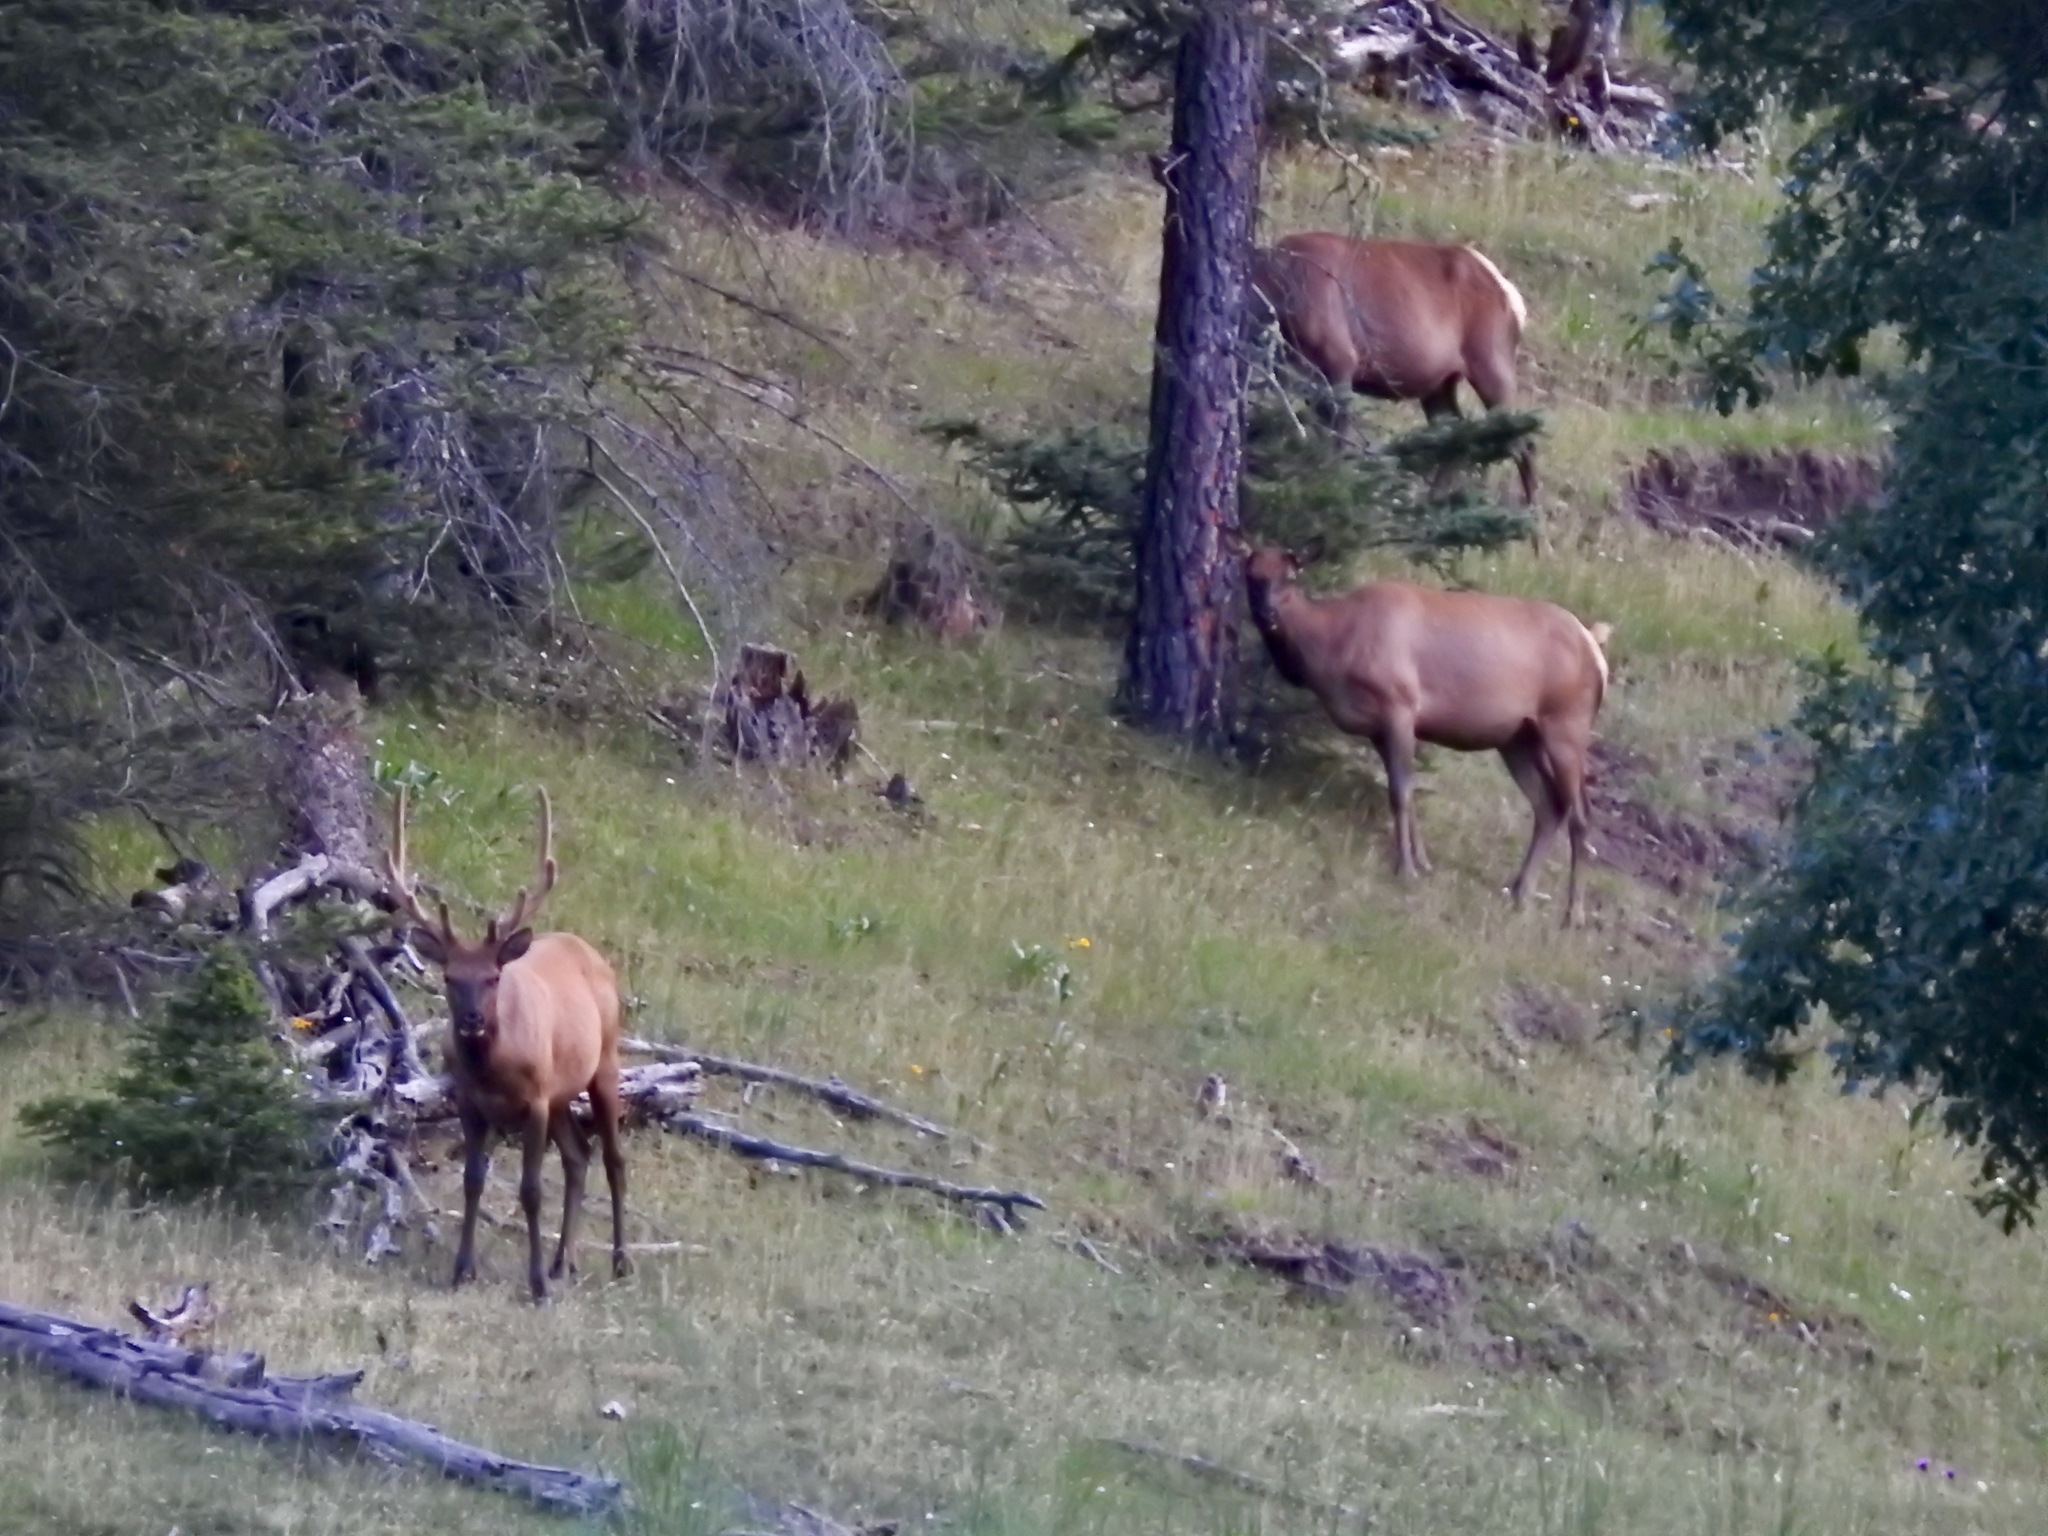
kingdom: Animalia
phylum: Chordata
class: Mammalia
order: Artiodactyla
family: Cervidae
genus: Cervus
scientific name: Cervus elaphus
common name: Red deer
